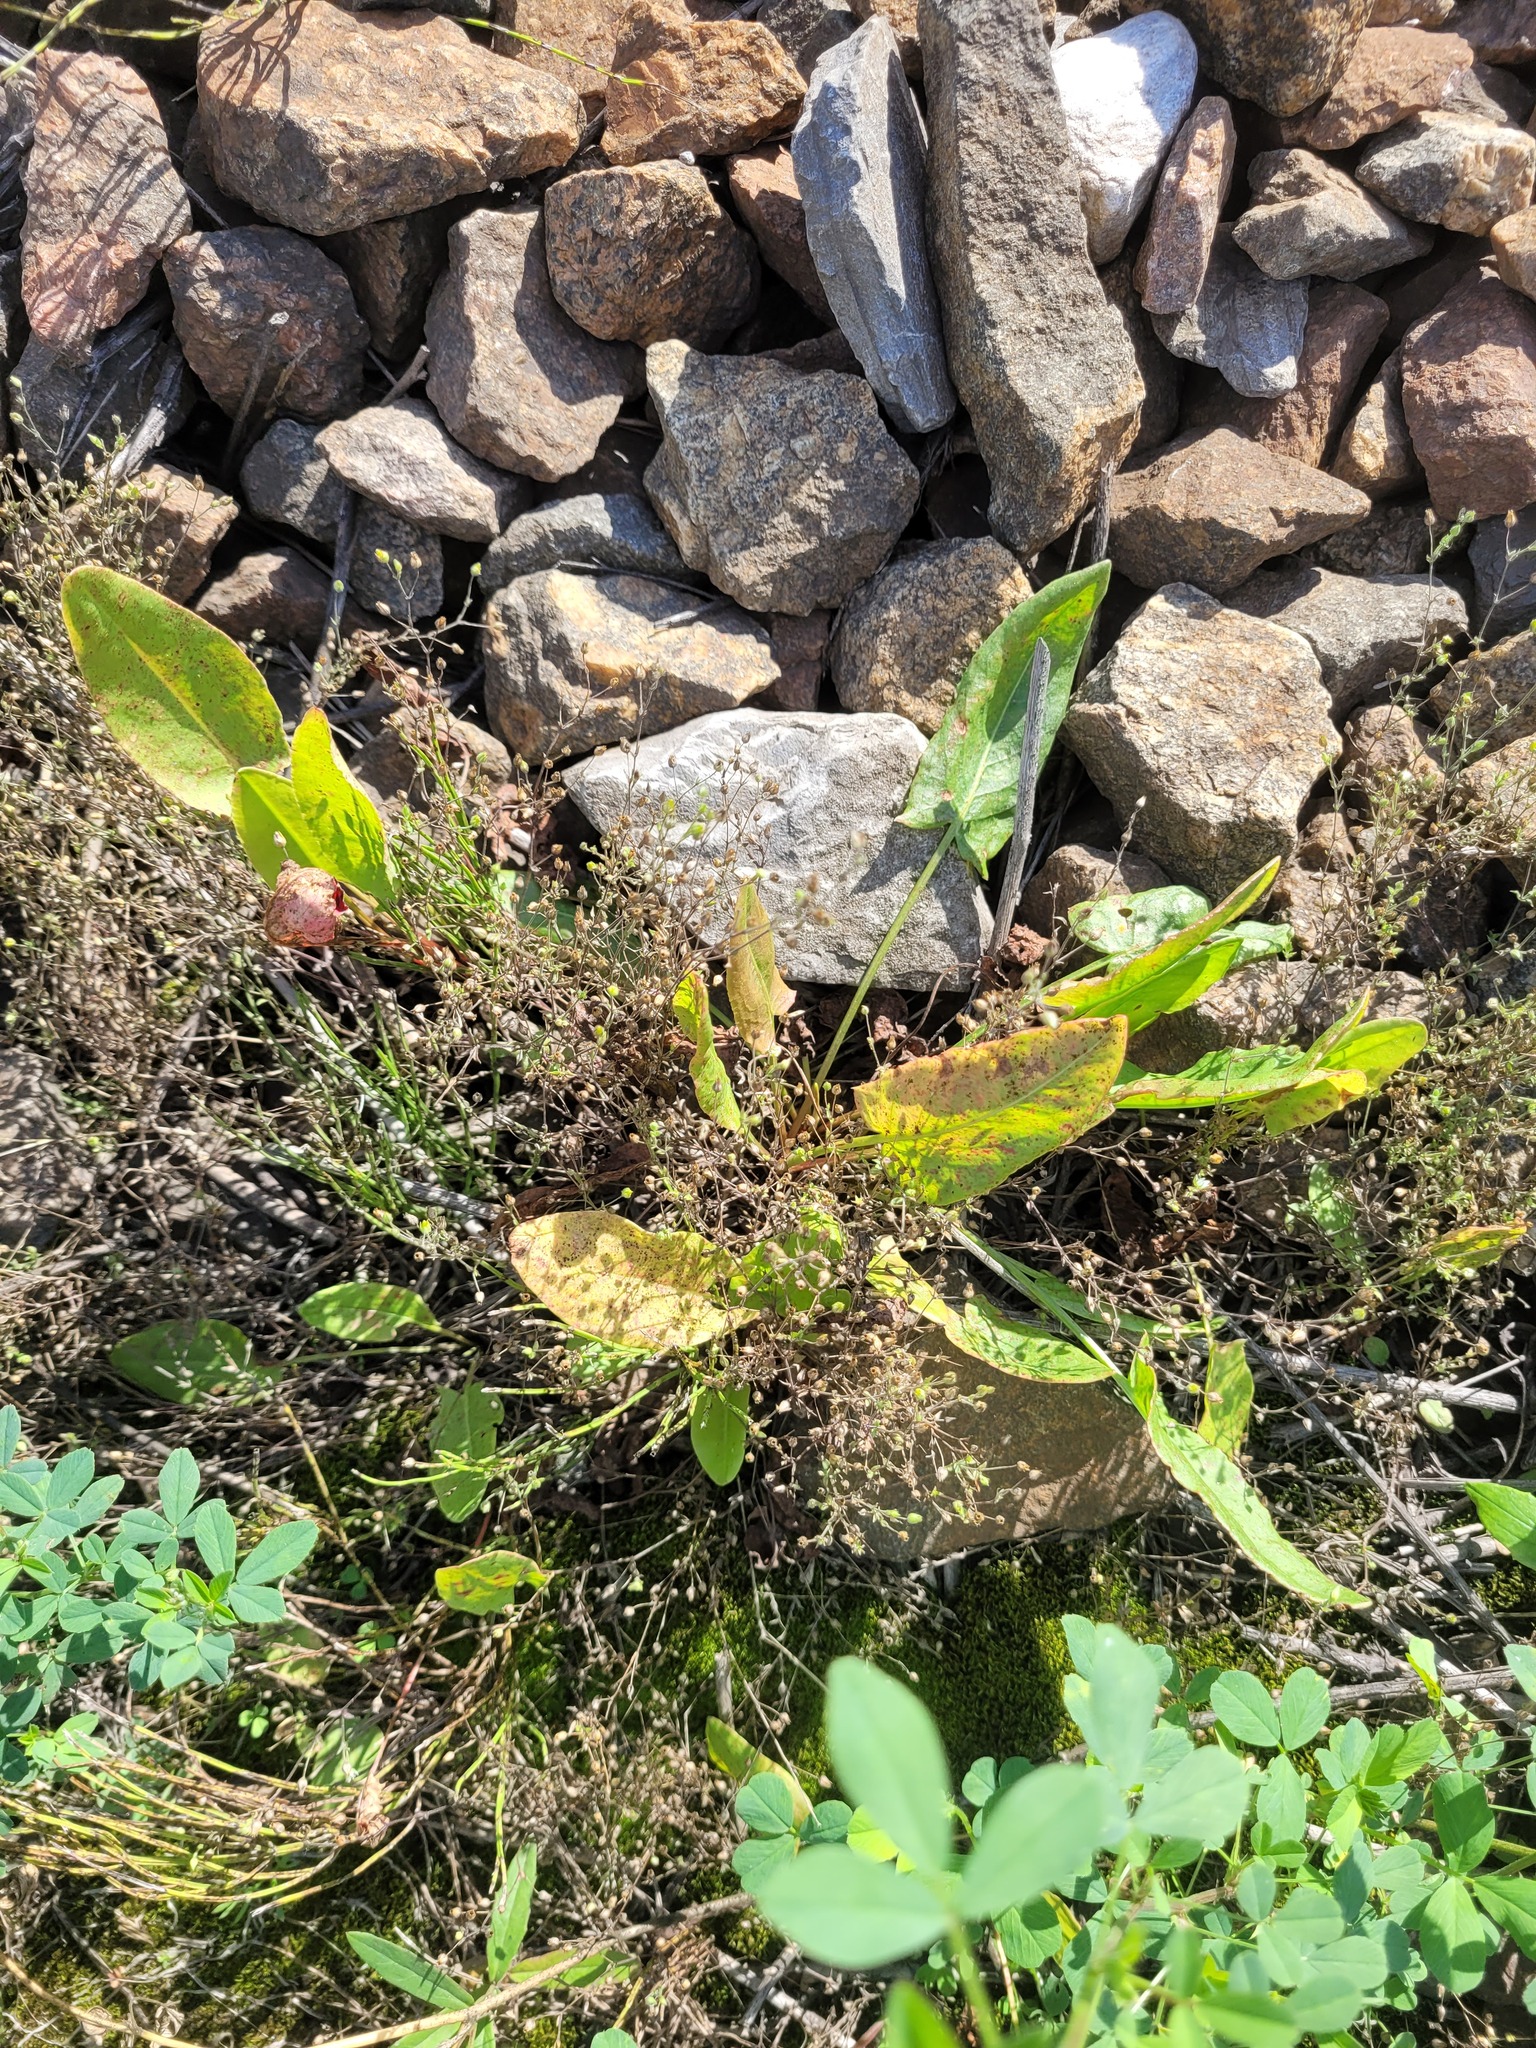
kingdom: Plantae
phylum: Tracheophyta
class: Magnoliopsida
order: Caryophyllales
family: Caryophyllaceae
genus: Arenaria
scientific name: Arenaria serpyllifolia
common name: Thyme-leaved sandwort
